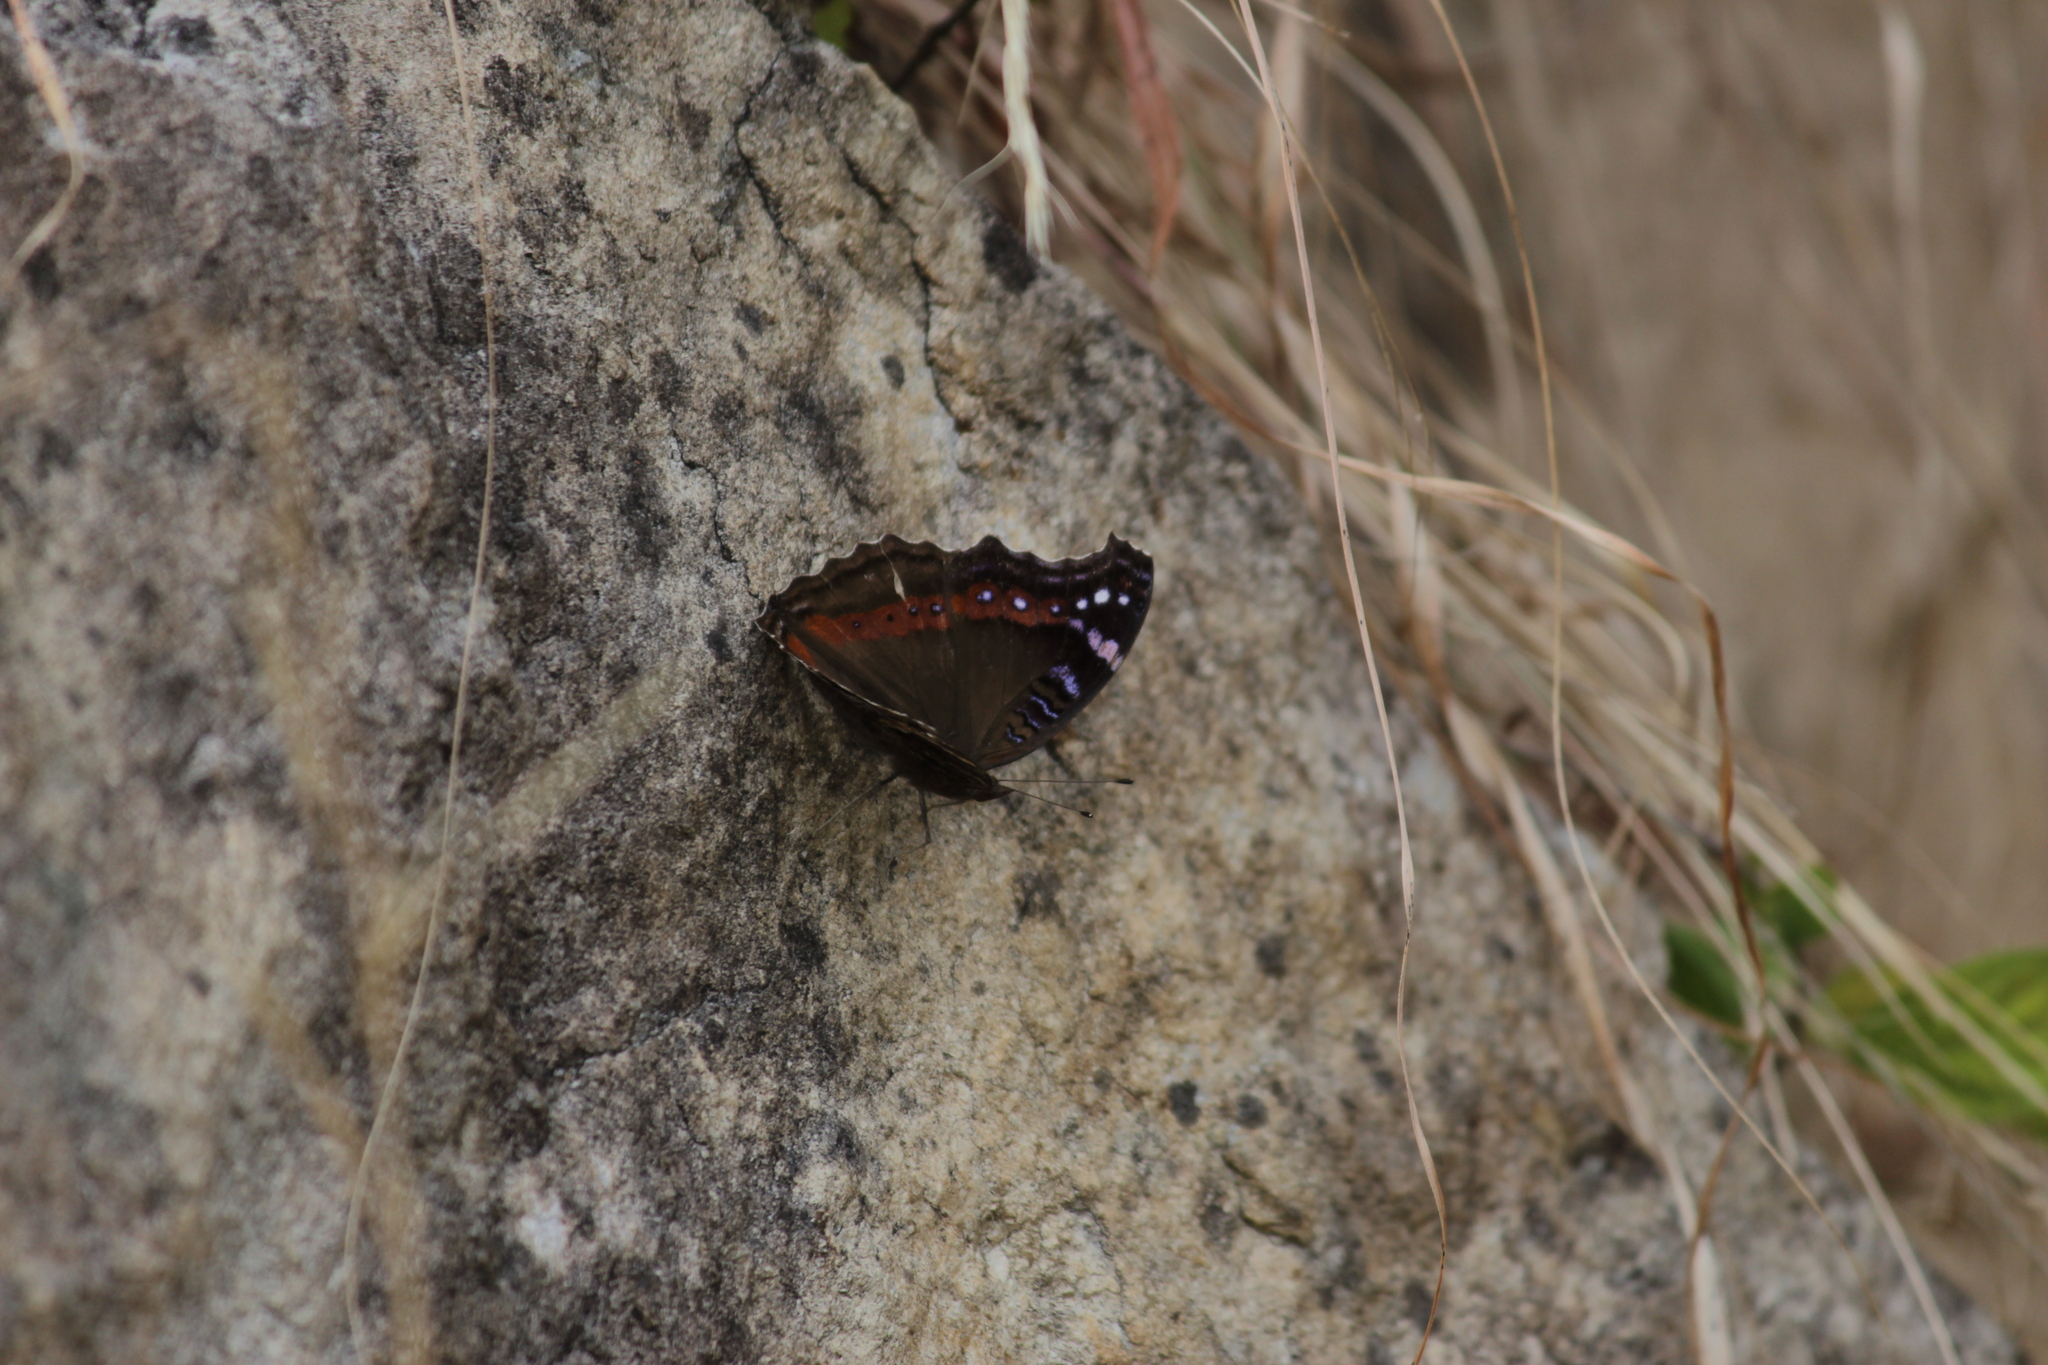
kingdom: Animalia
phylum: Arthropoda
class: Insecta
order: Lepidoptera
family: Nymphalidae
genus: Junonia
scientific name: Junonia archesia
